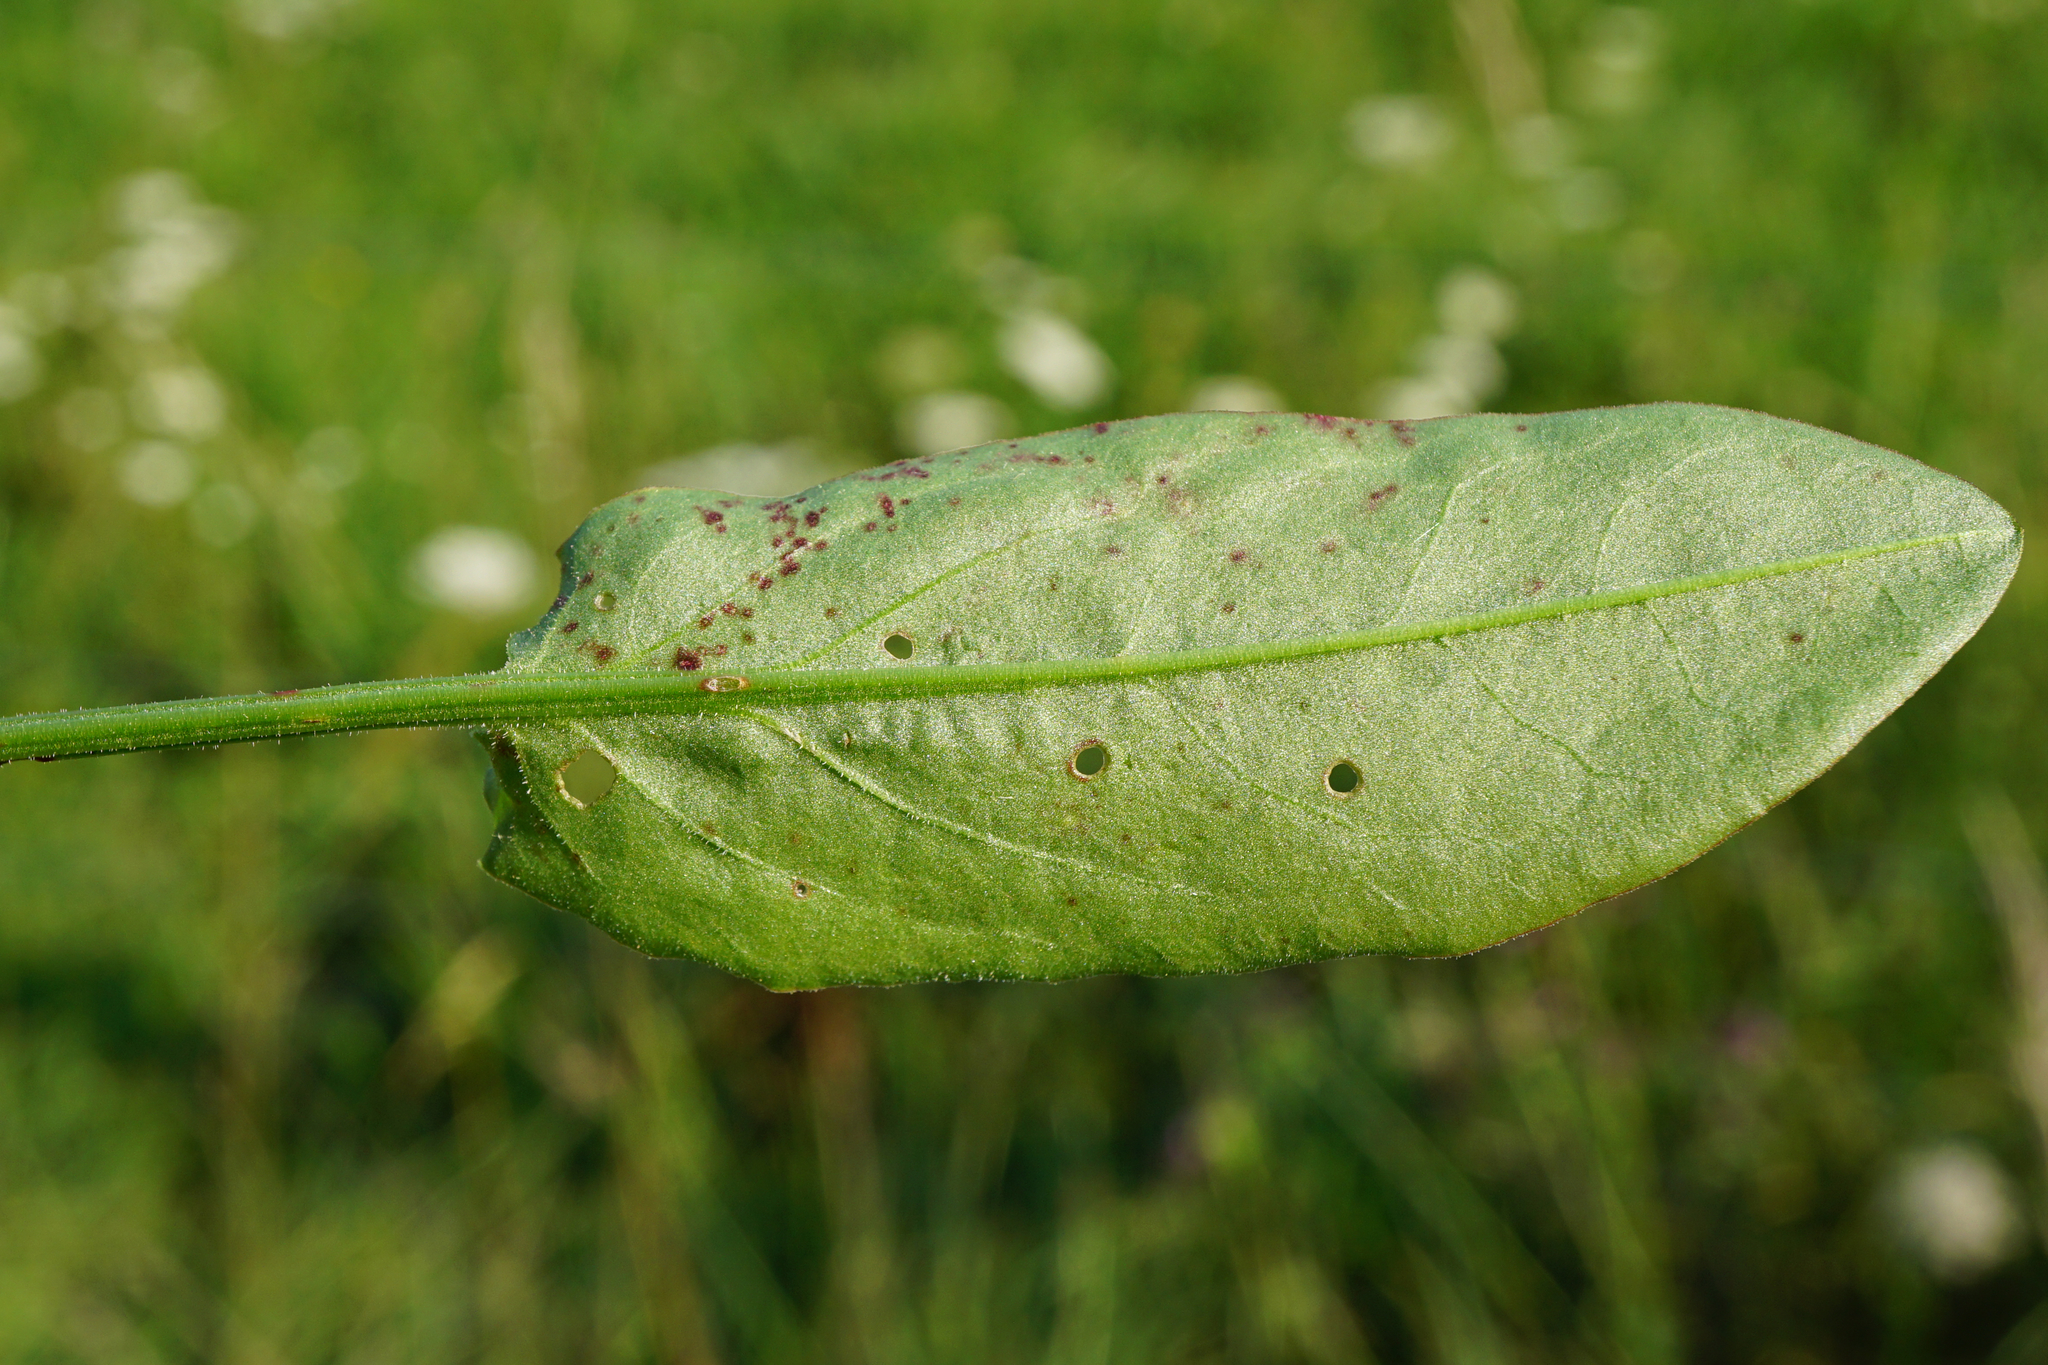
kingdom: Plantae
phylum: Tracheophyta
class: Magnoliopsida
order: Caryophyllales
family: Polygonaceae
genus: Rumex
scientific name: Rumex acetosa
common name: Garden sorrel
